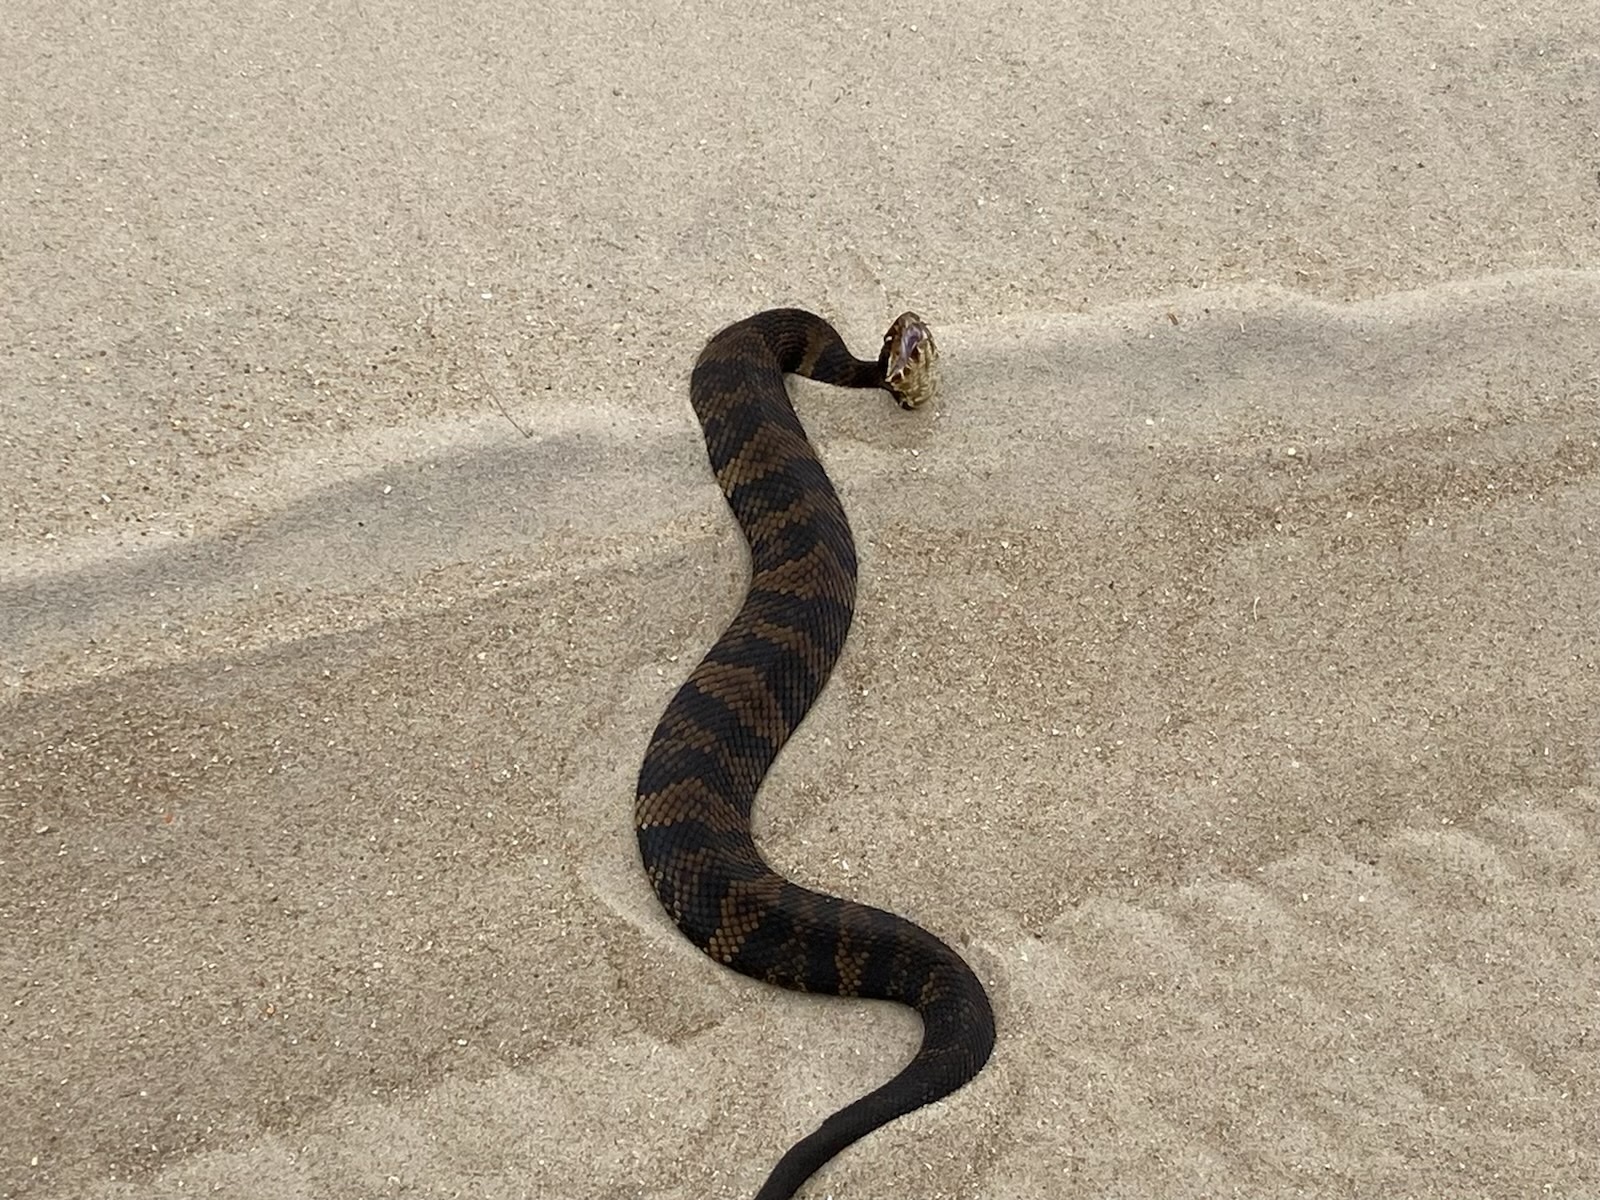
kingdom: Animalia
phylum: Chordata
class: Squamata
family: Viperidae
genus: Agkistrodon
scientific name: Agkistrodon piscivorus
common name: Cottonmouth
